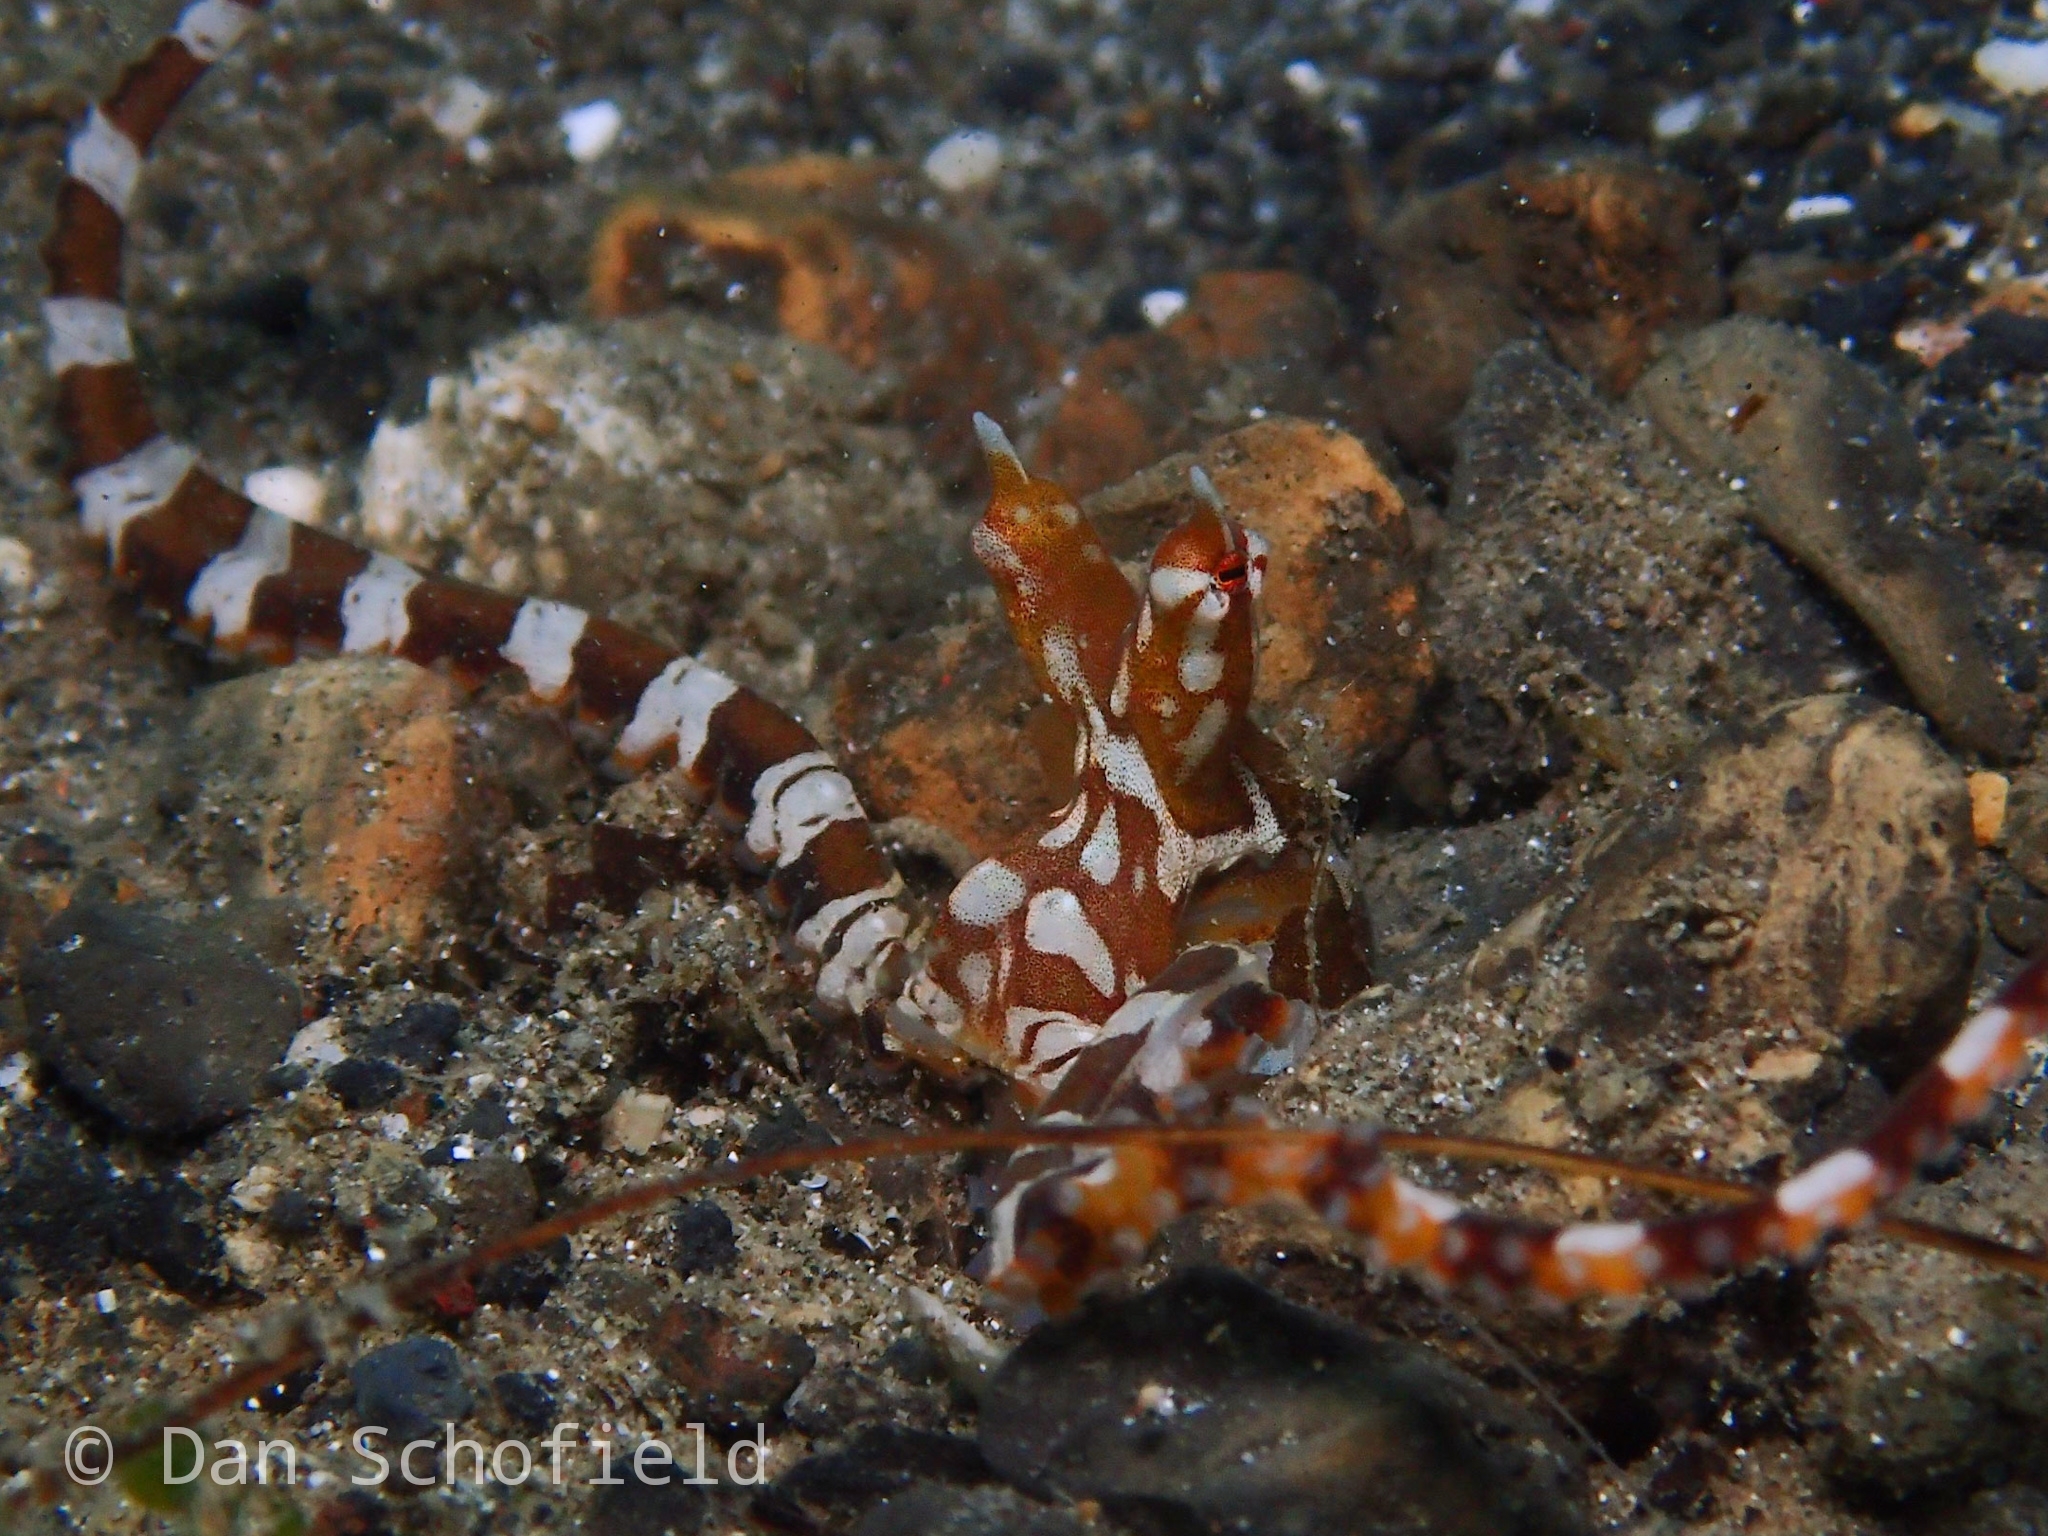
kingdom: Animalia
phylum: Mollusca
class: Cephalopoda
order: Octopoda
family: Octopodidae
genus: Wunderpus
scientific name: Wunderpus photogenicus
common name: Wunderpus
